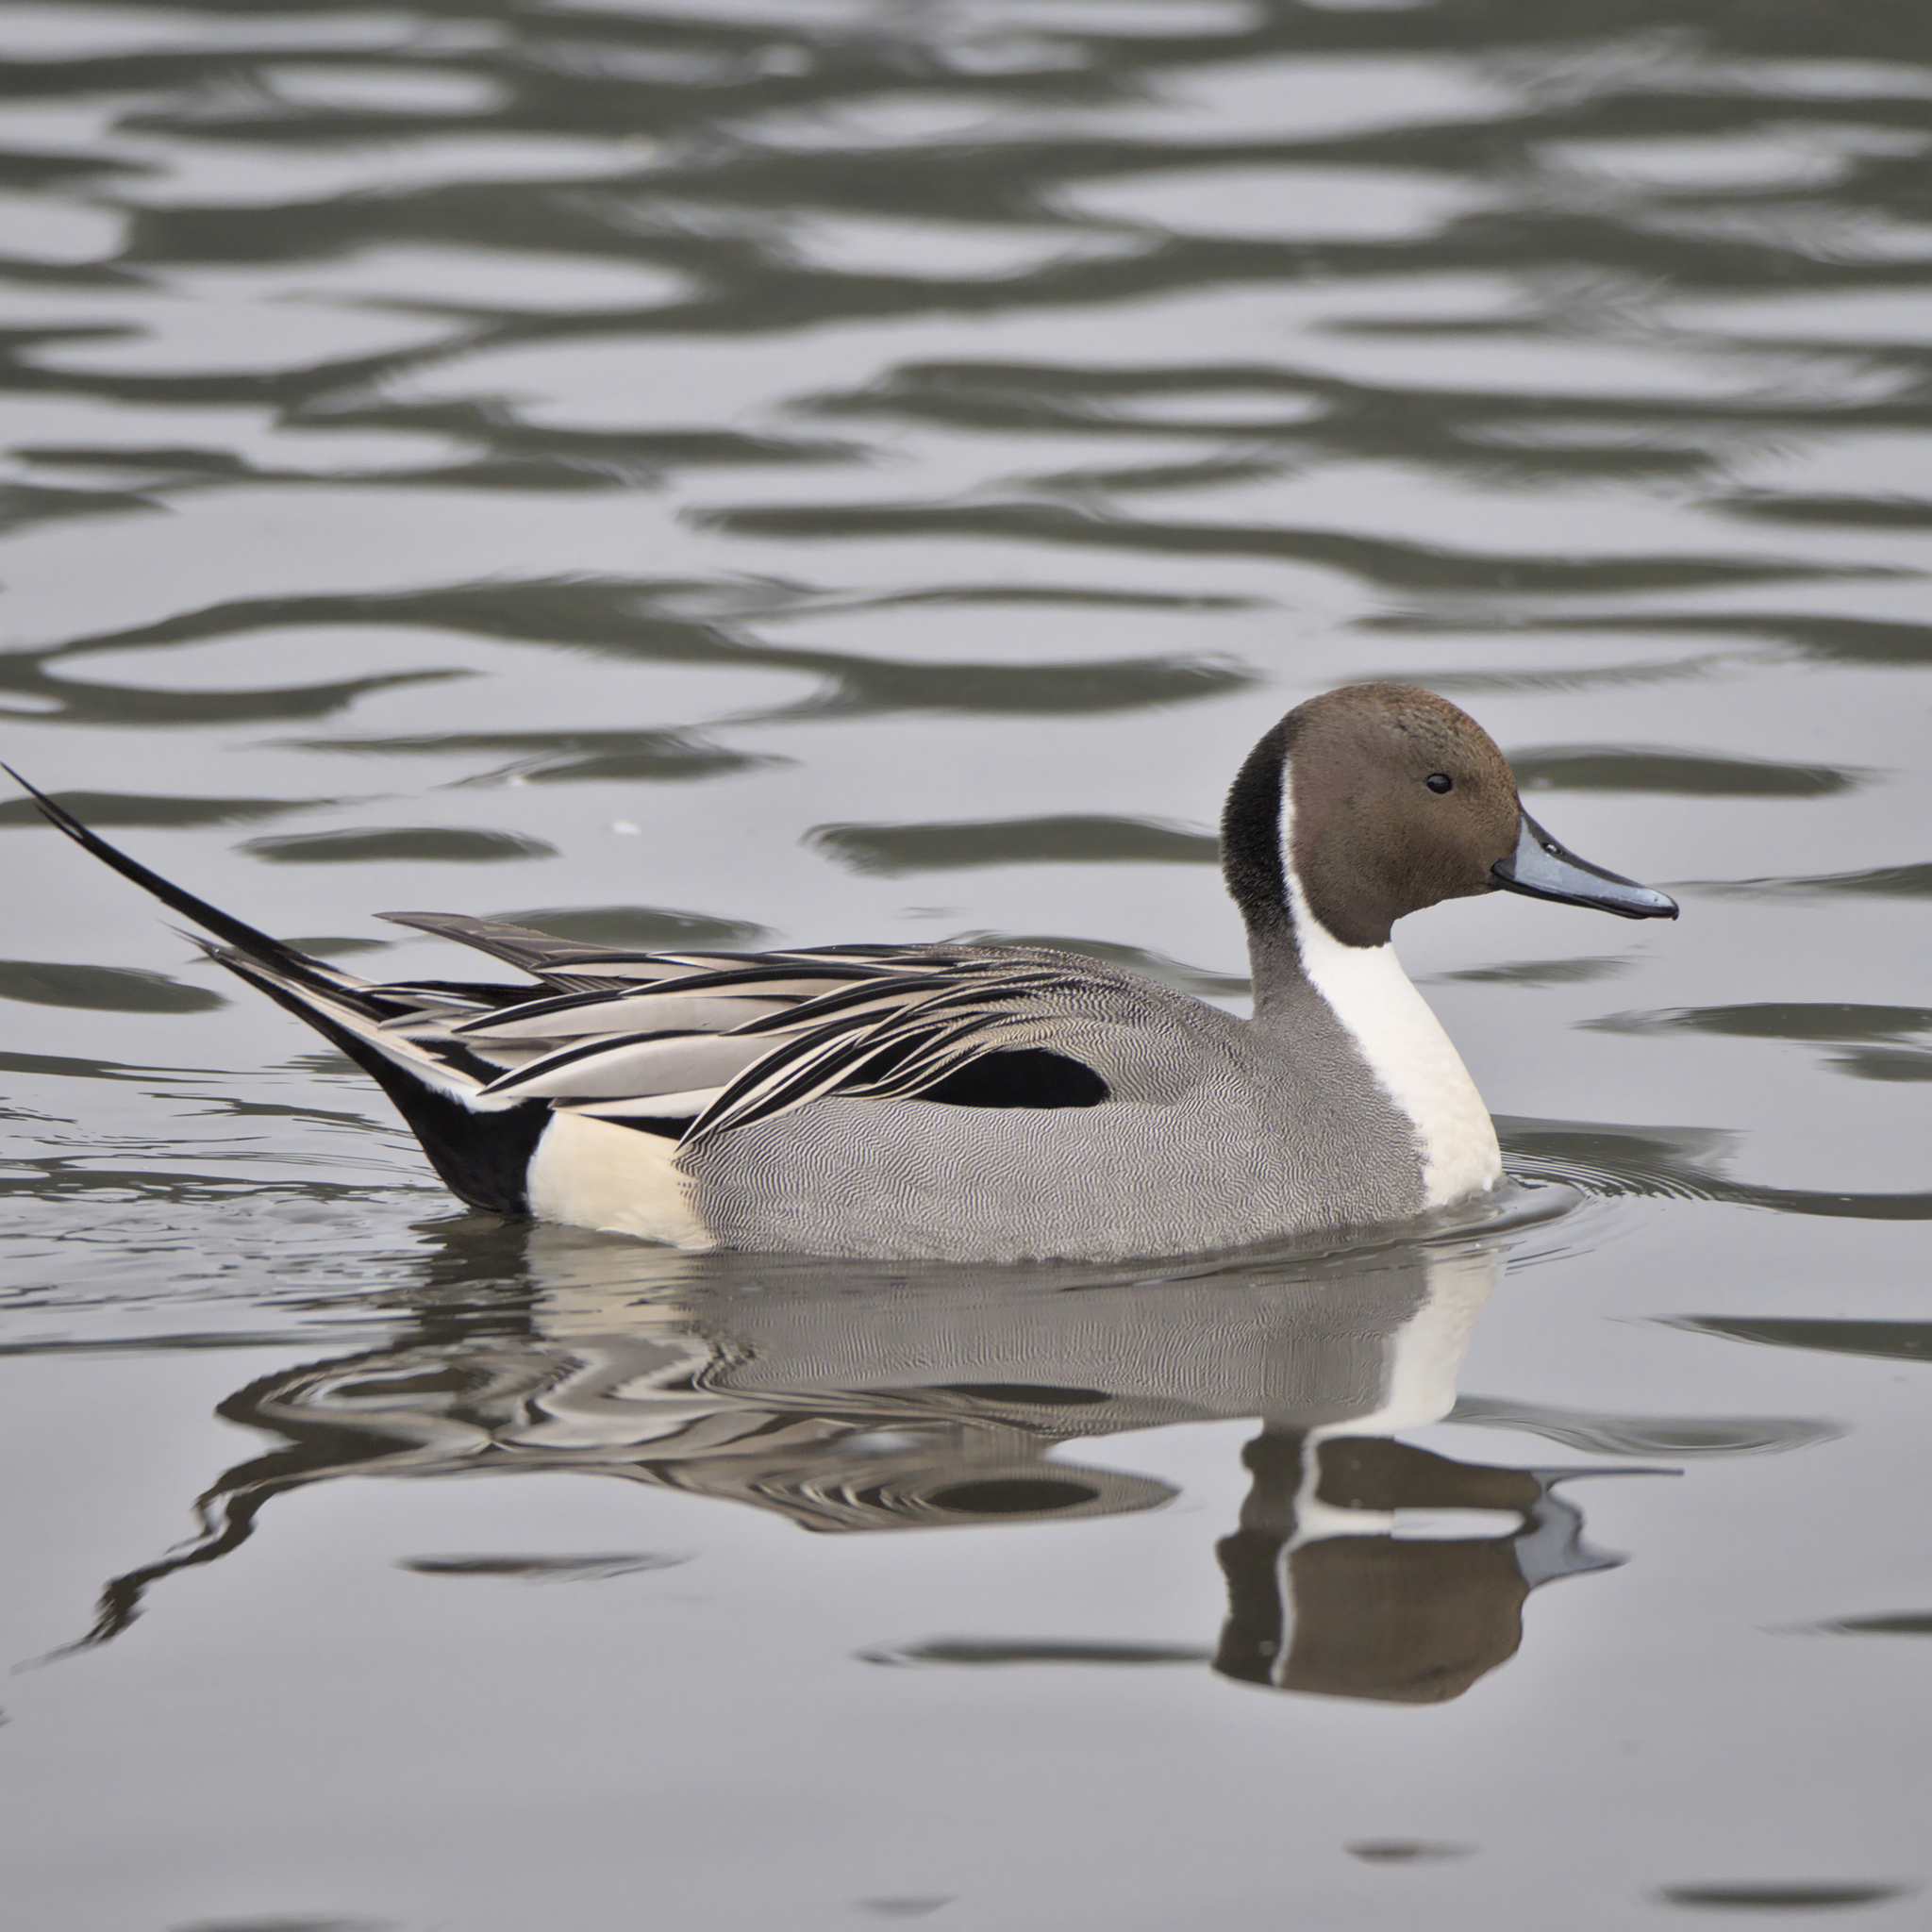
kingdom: Animalia
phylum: Chordata
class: Aves
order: Anseriformes
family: Anatidae
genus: Anas
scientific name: Anas acuta
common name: Northern pintail
